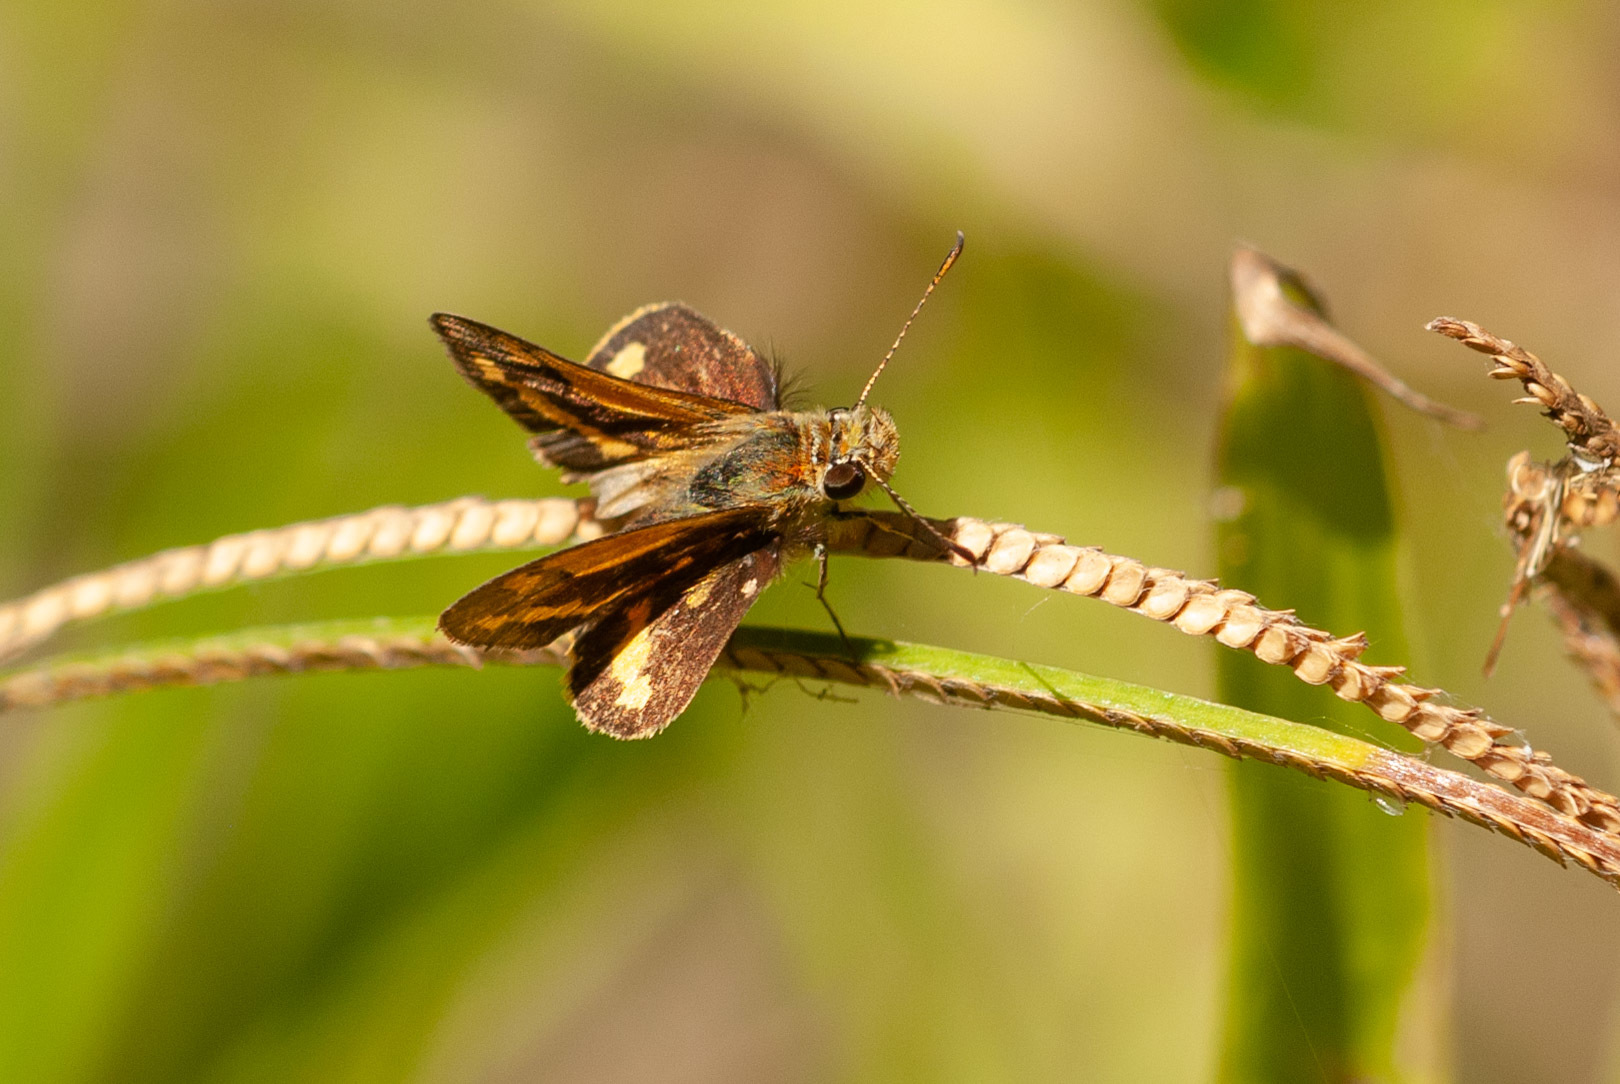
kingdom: Animalia
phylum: Arthropoda
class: Insecta
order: Lepidoptera
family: Hesperiidae
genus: Ocybadistes
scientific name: Ocybadistes walkeri
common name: Yellow-banded dart
